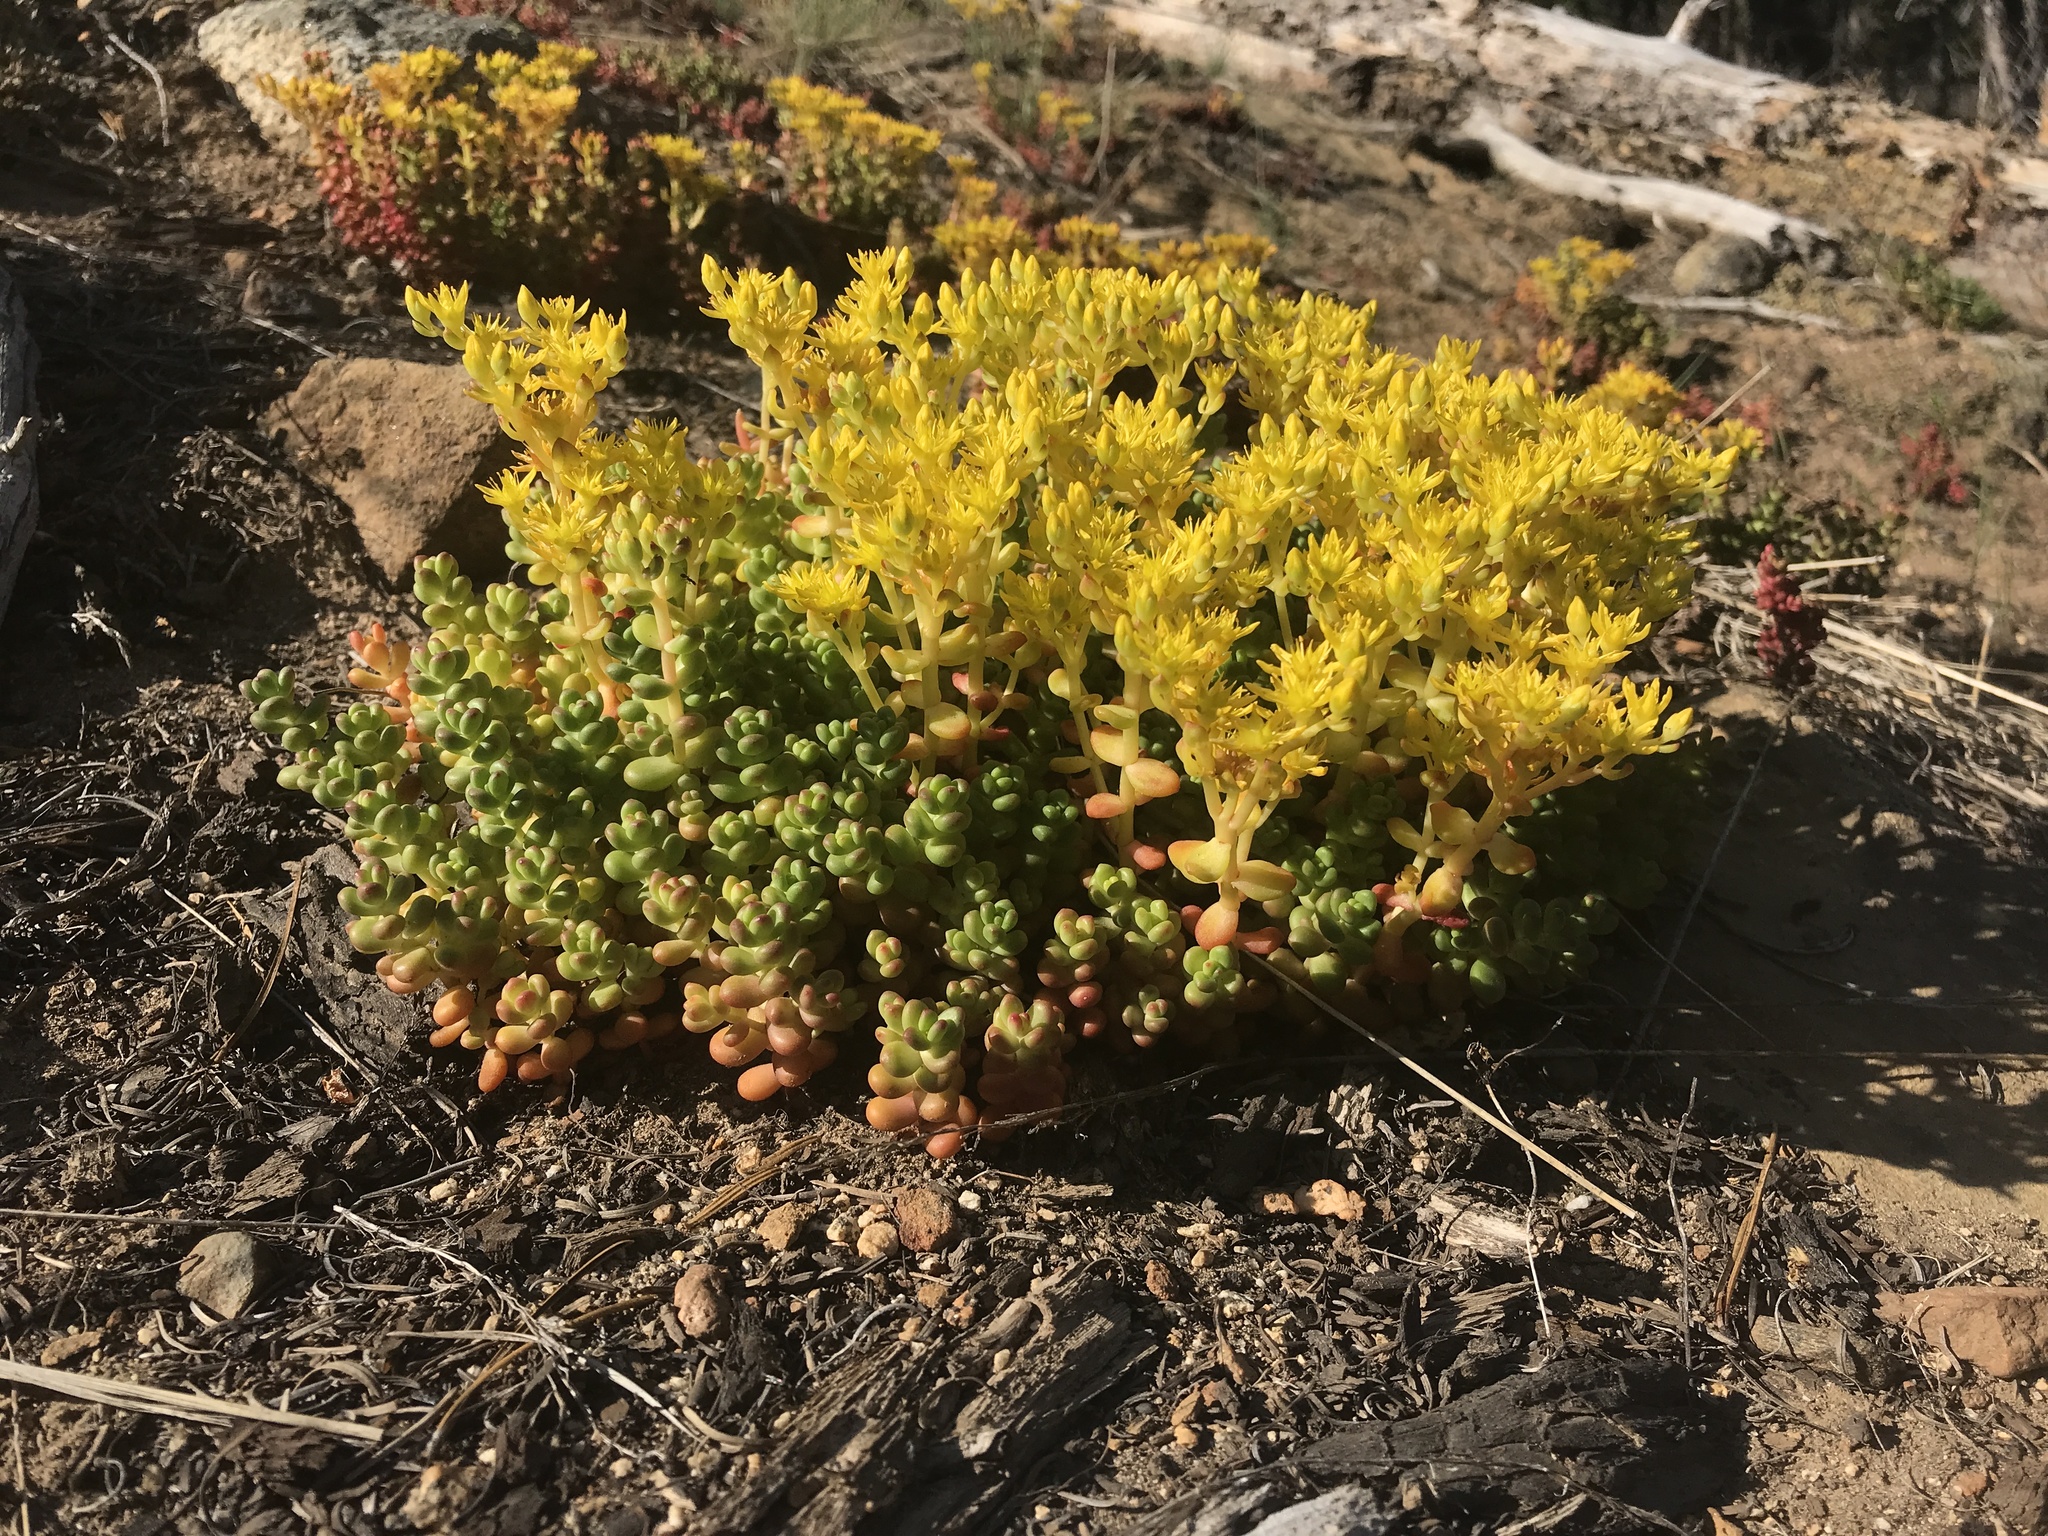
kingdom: Plantae
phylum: Tracheophyta
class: Magnoliopsida
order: Saxifragales
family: Crassulaceae
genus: Sedum
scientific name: Sedum divergens
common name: Cascade stonecrop
